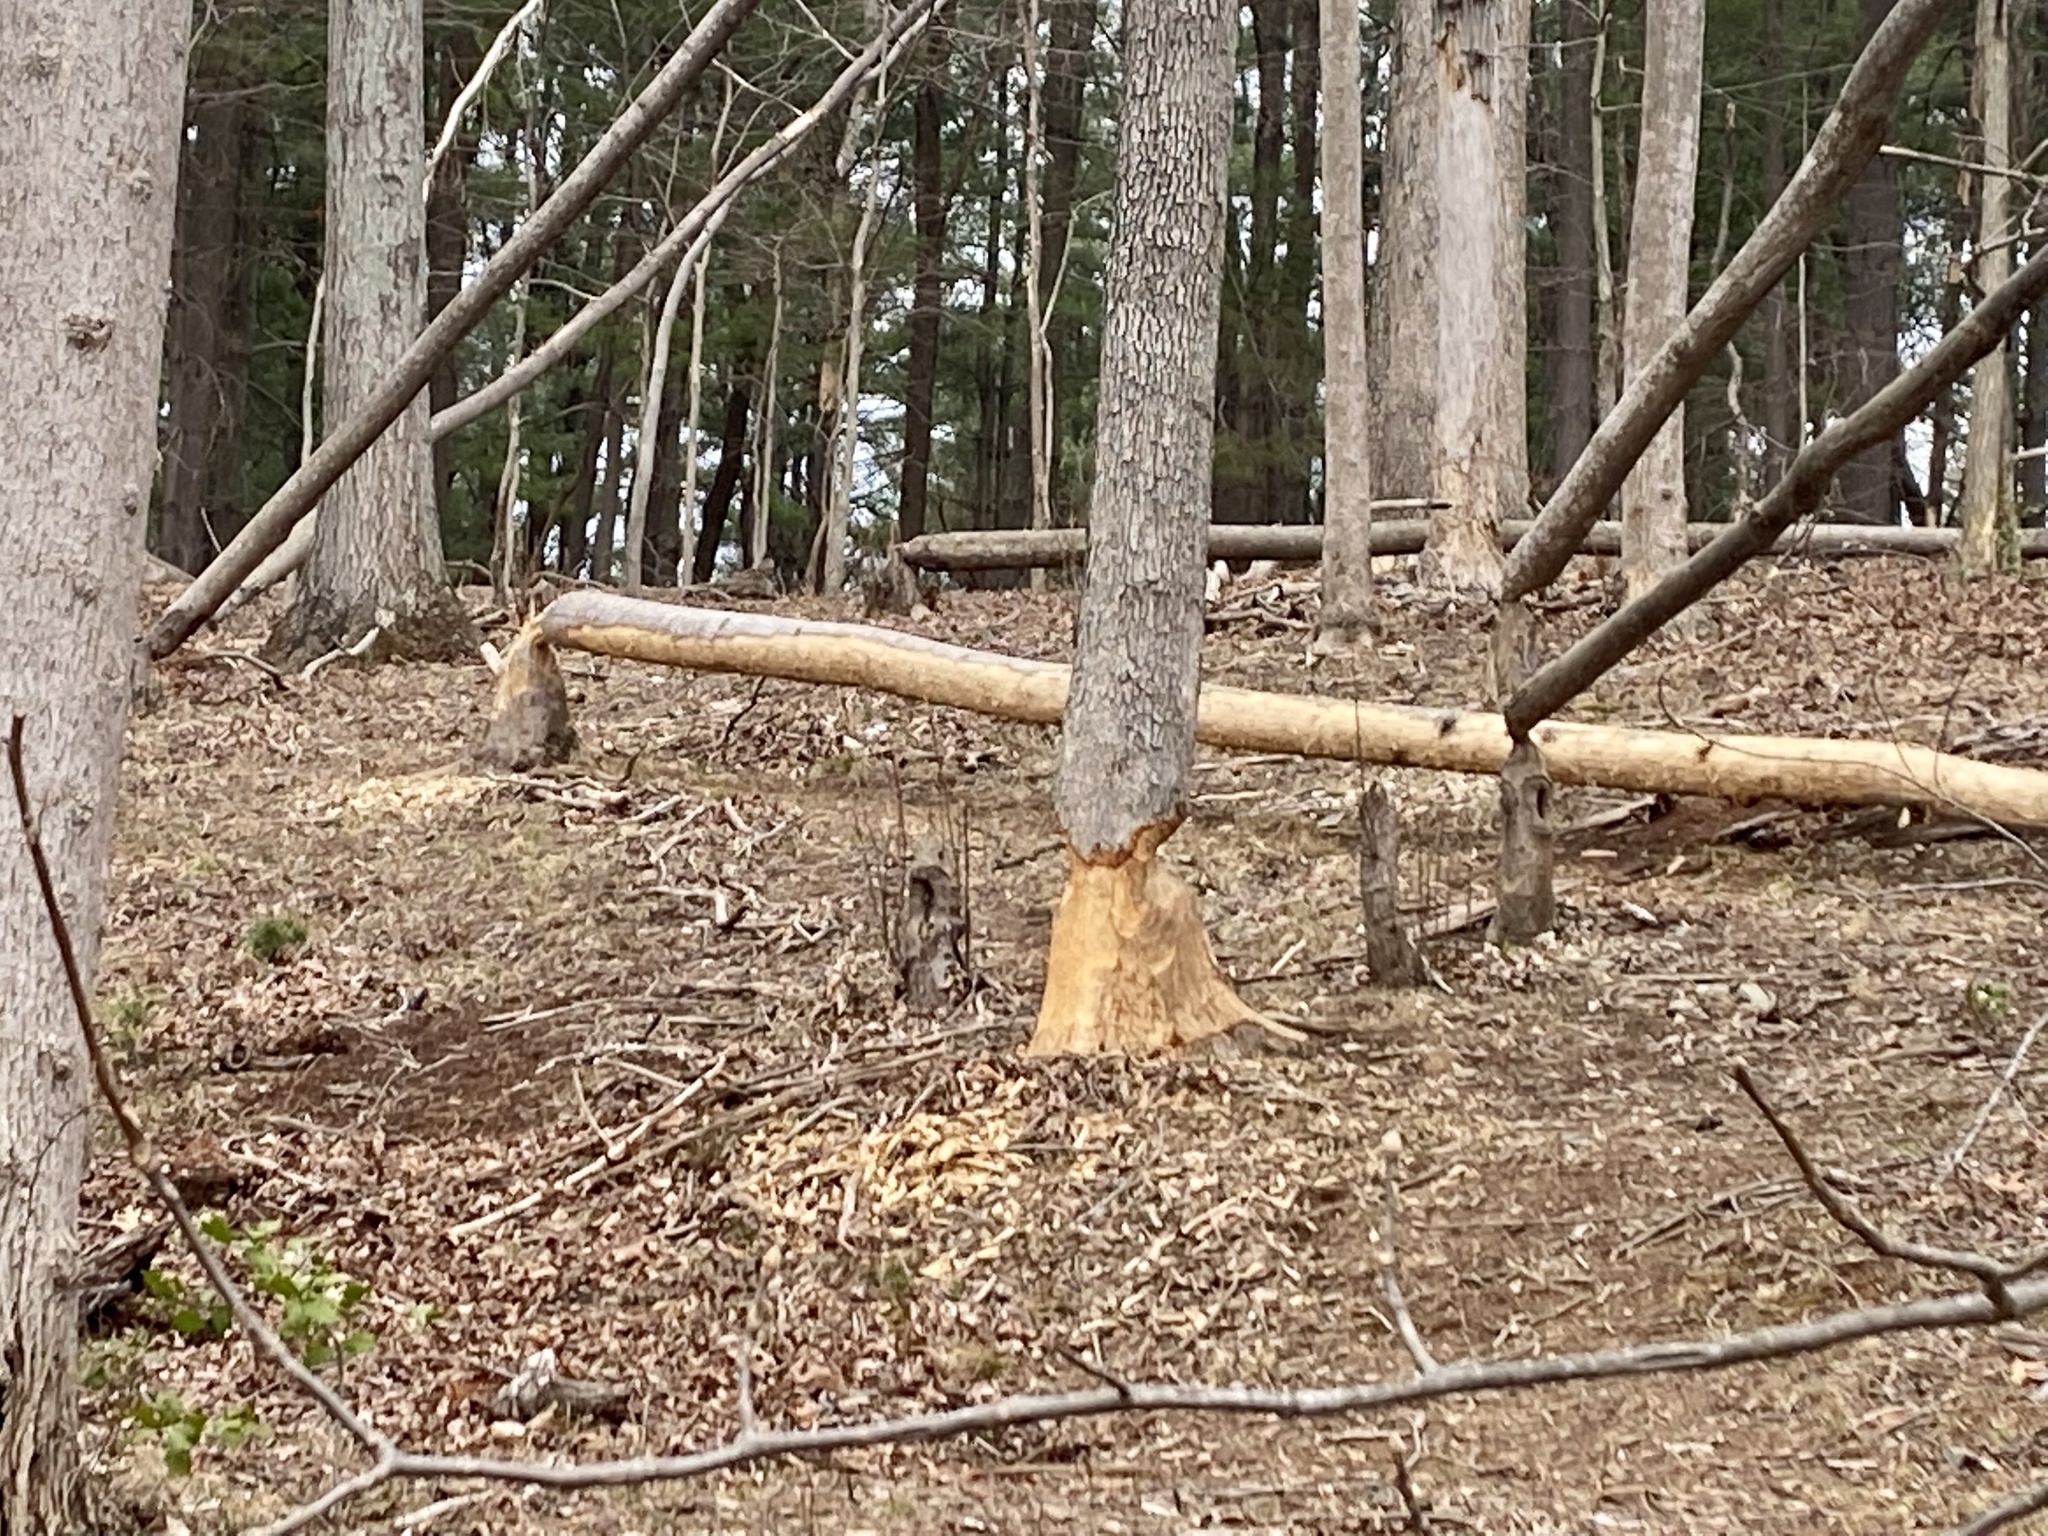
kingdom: Animalia
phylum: Chordata
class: Mammalia
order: Rodentia
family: Castoridae
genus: Castor
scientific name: Castor canadensis
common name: American beaver
